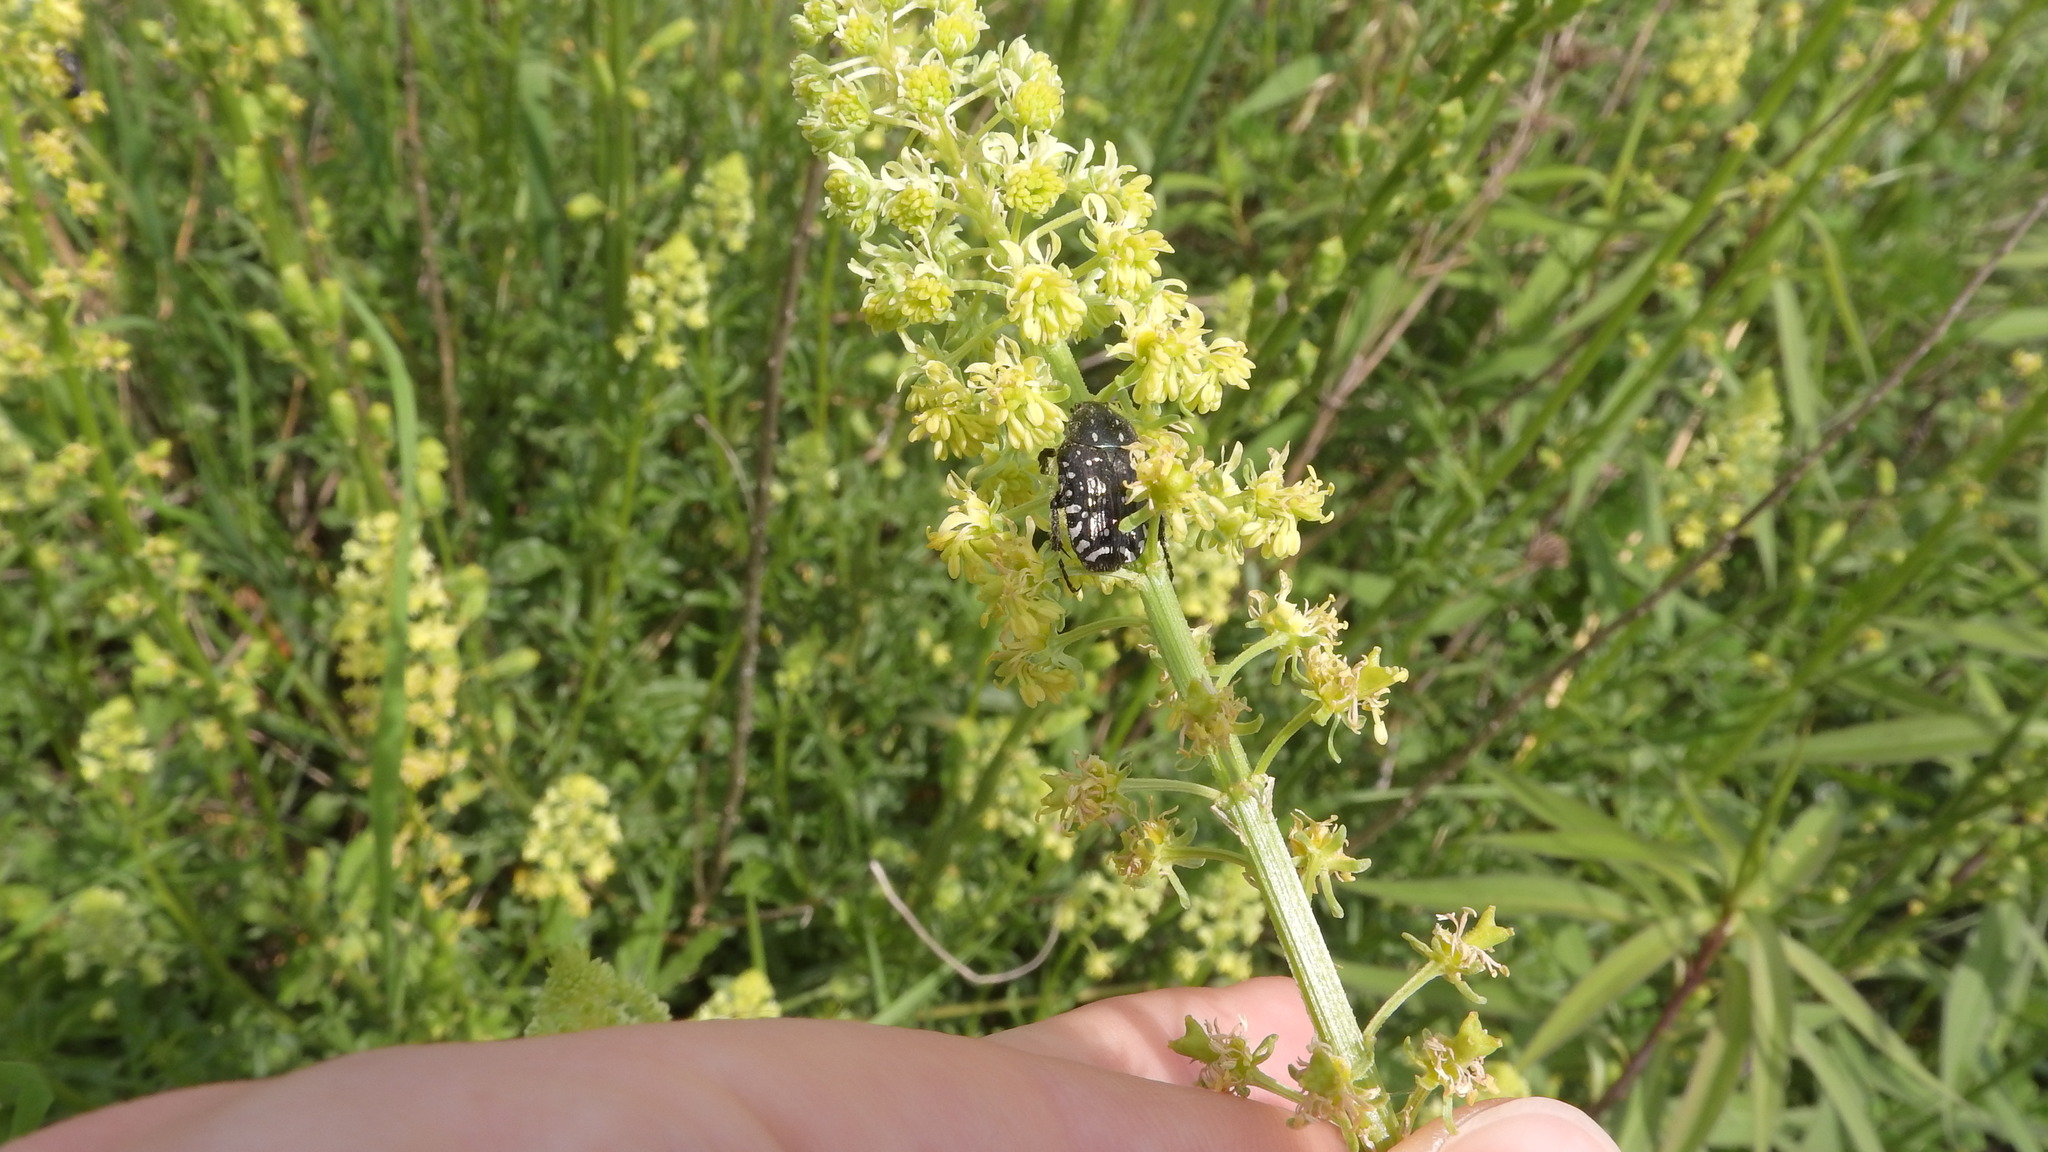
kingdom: Animalia
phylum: Arthropoda
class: Insecta
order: Coleoptera
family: Scarabaeidae
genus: Oxythyrea
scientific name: Oxythyrea funesta
